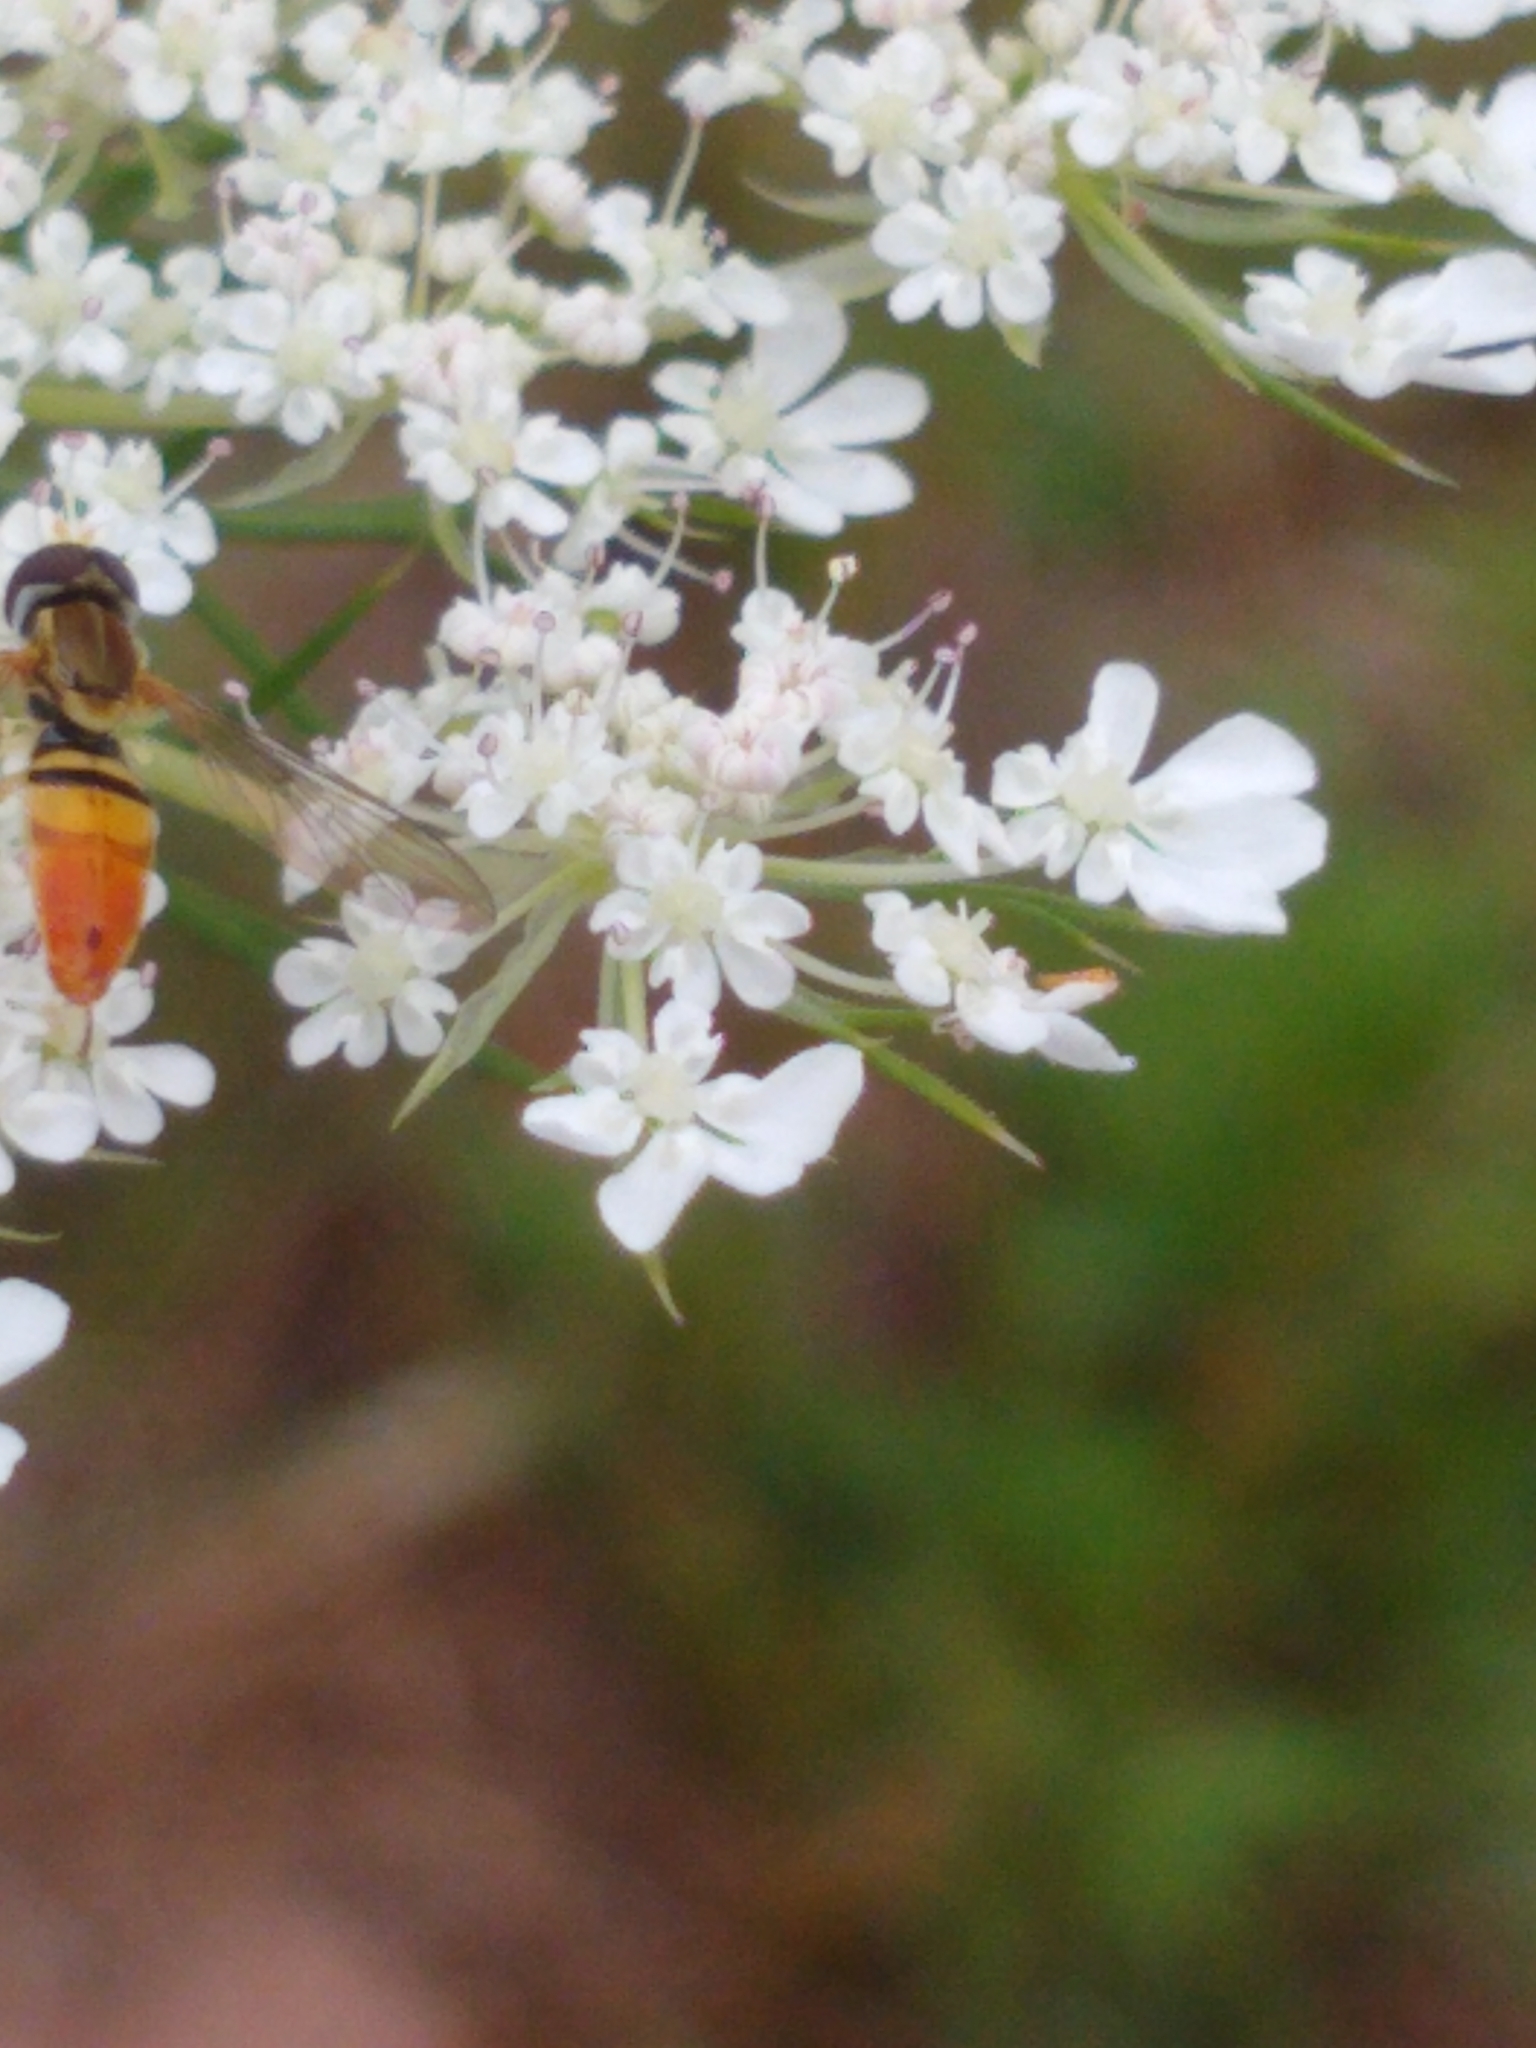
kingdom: Animalia
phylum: Arthropoda
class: Insecta
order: Diptera
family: Syrphidae
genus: Toxomerus
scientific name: Toxomerus marginatus
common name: Syrphid fly
